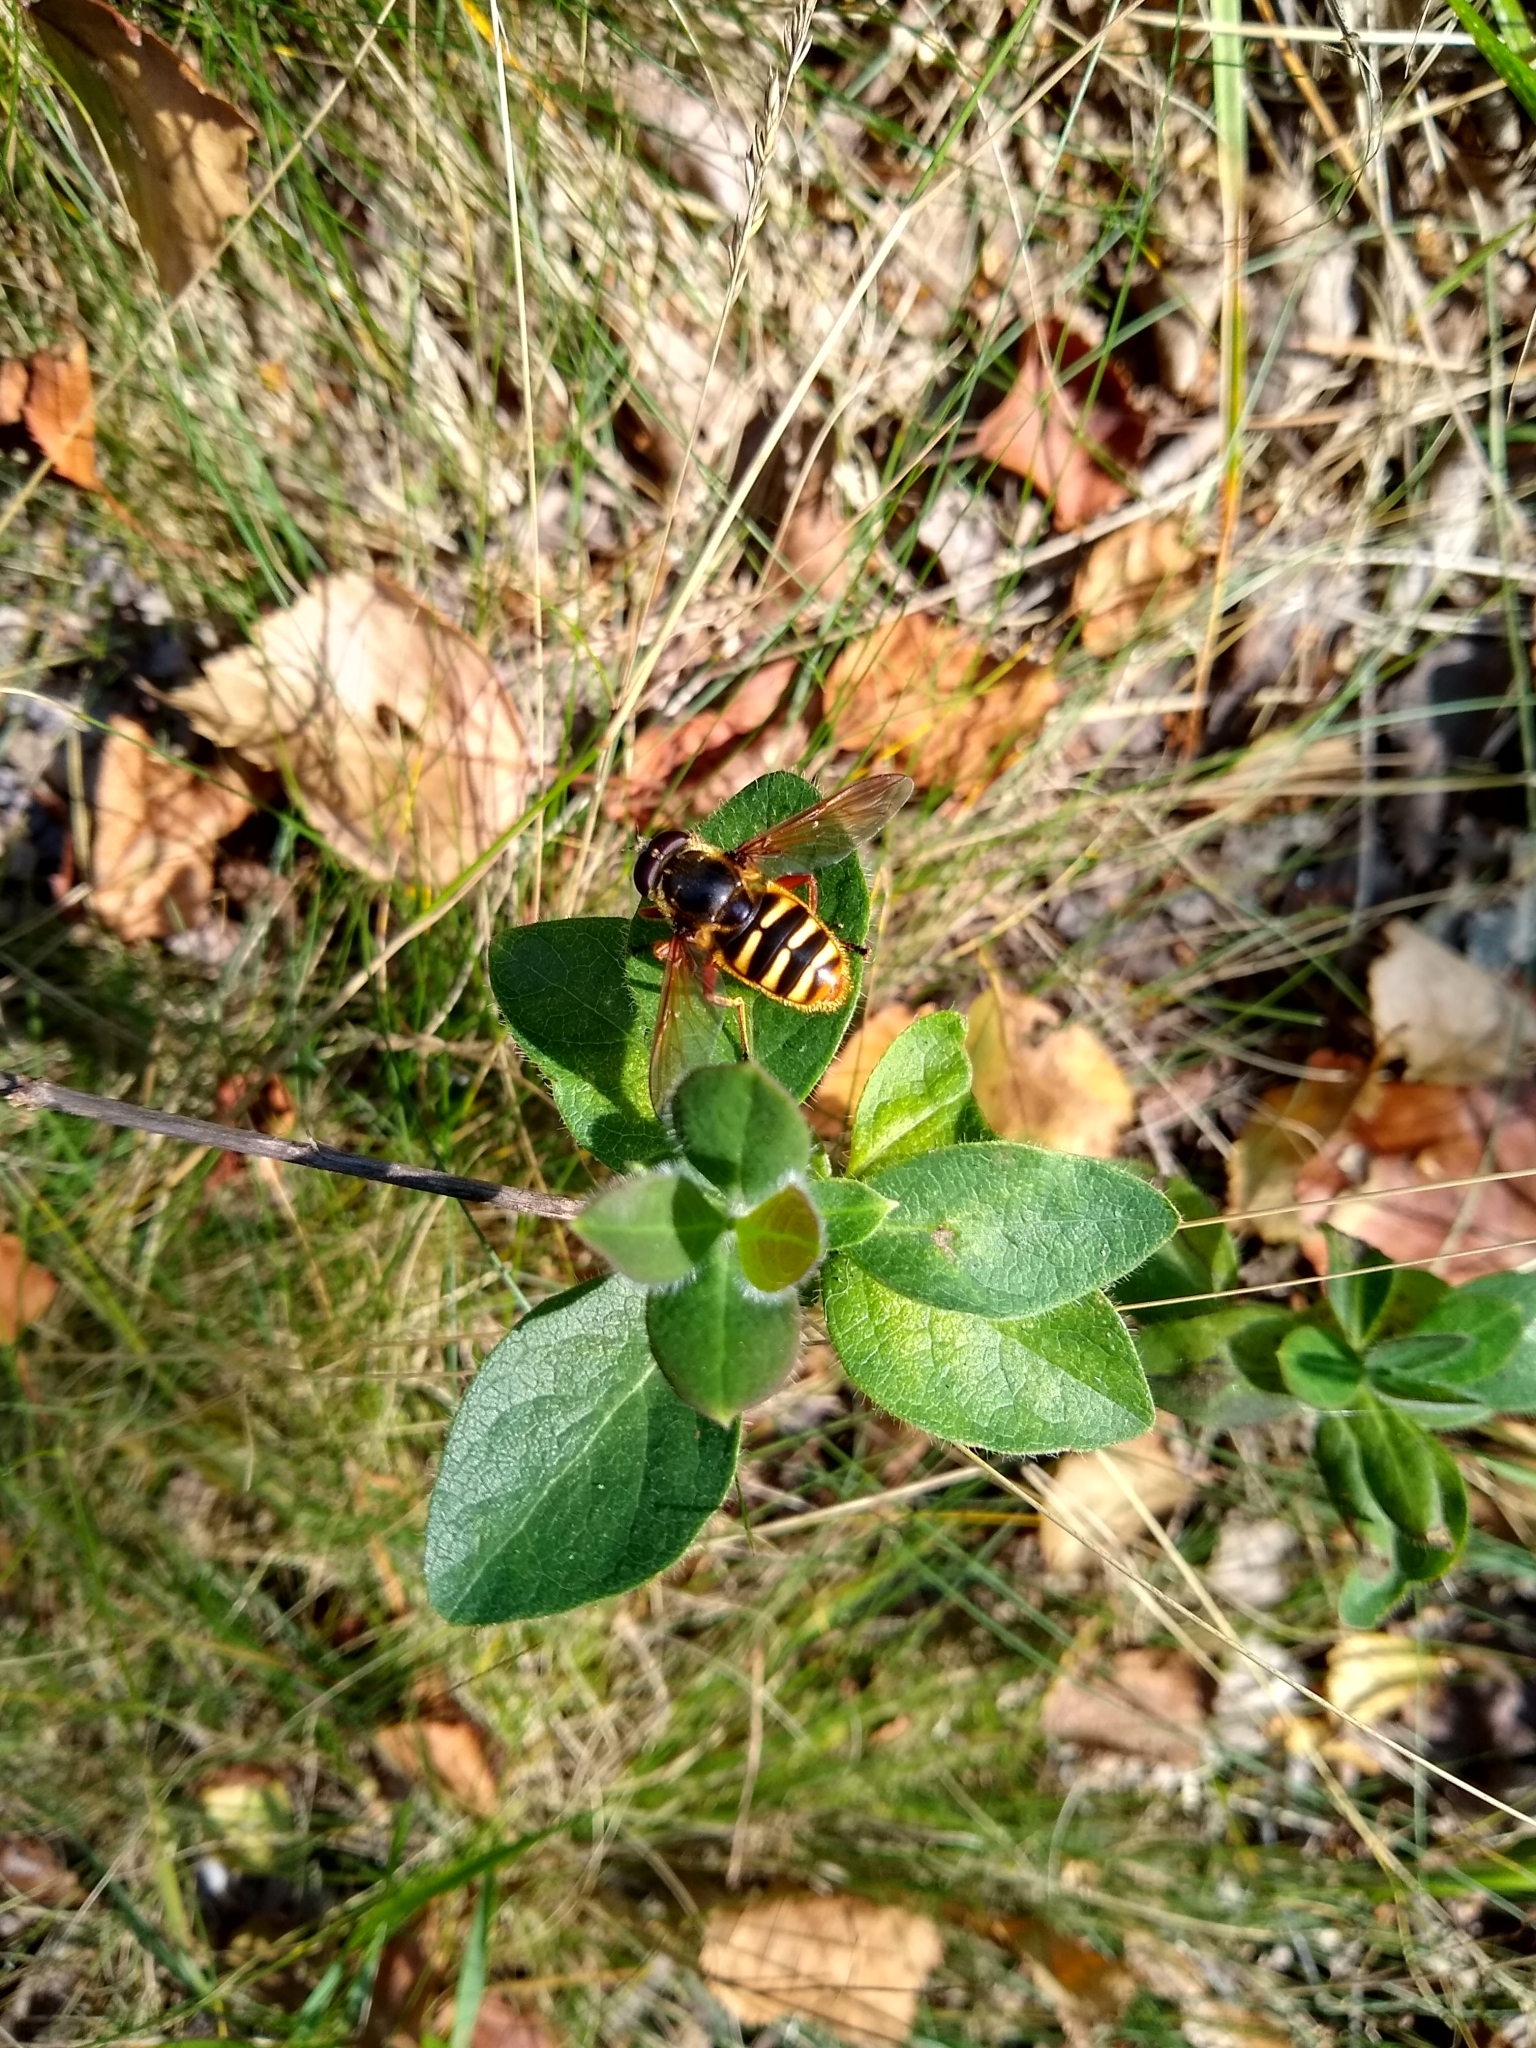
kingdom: Animalia
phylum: Arthropoda
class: Insecta
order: Diptera
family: Syrphidae
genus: Sericomyia
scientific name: Sericomyia silentis
